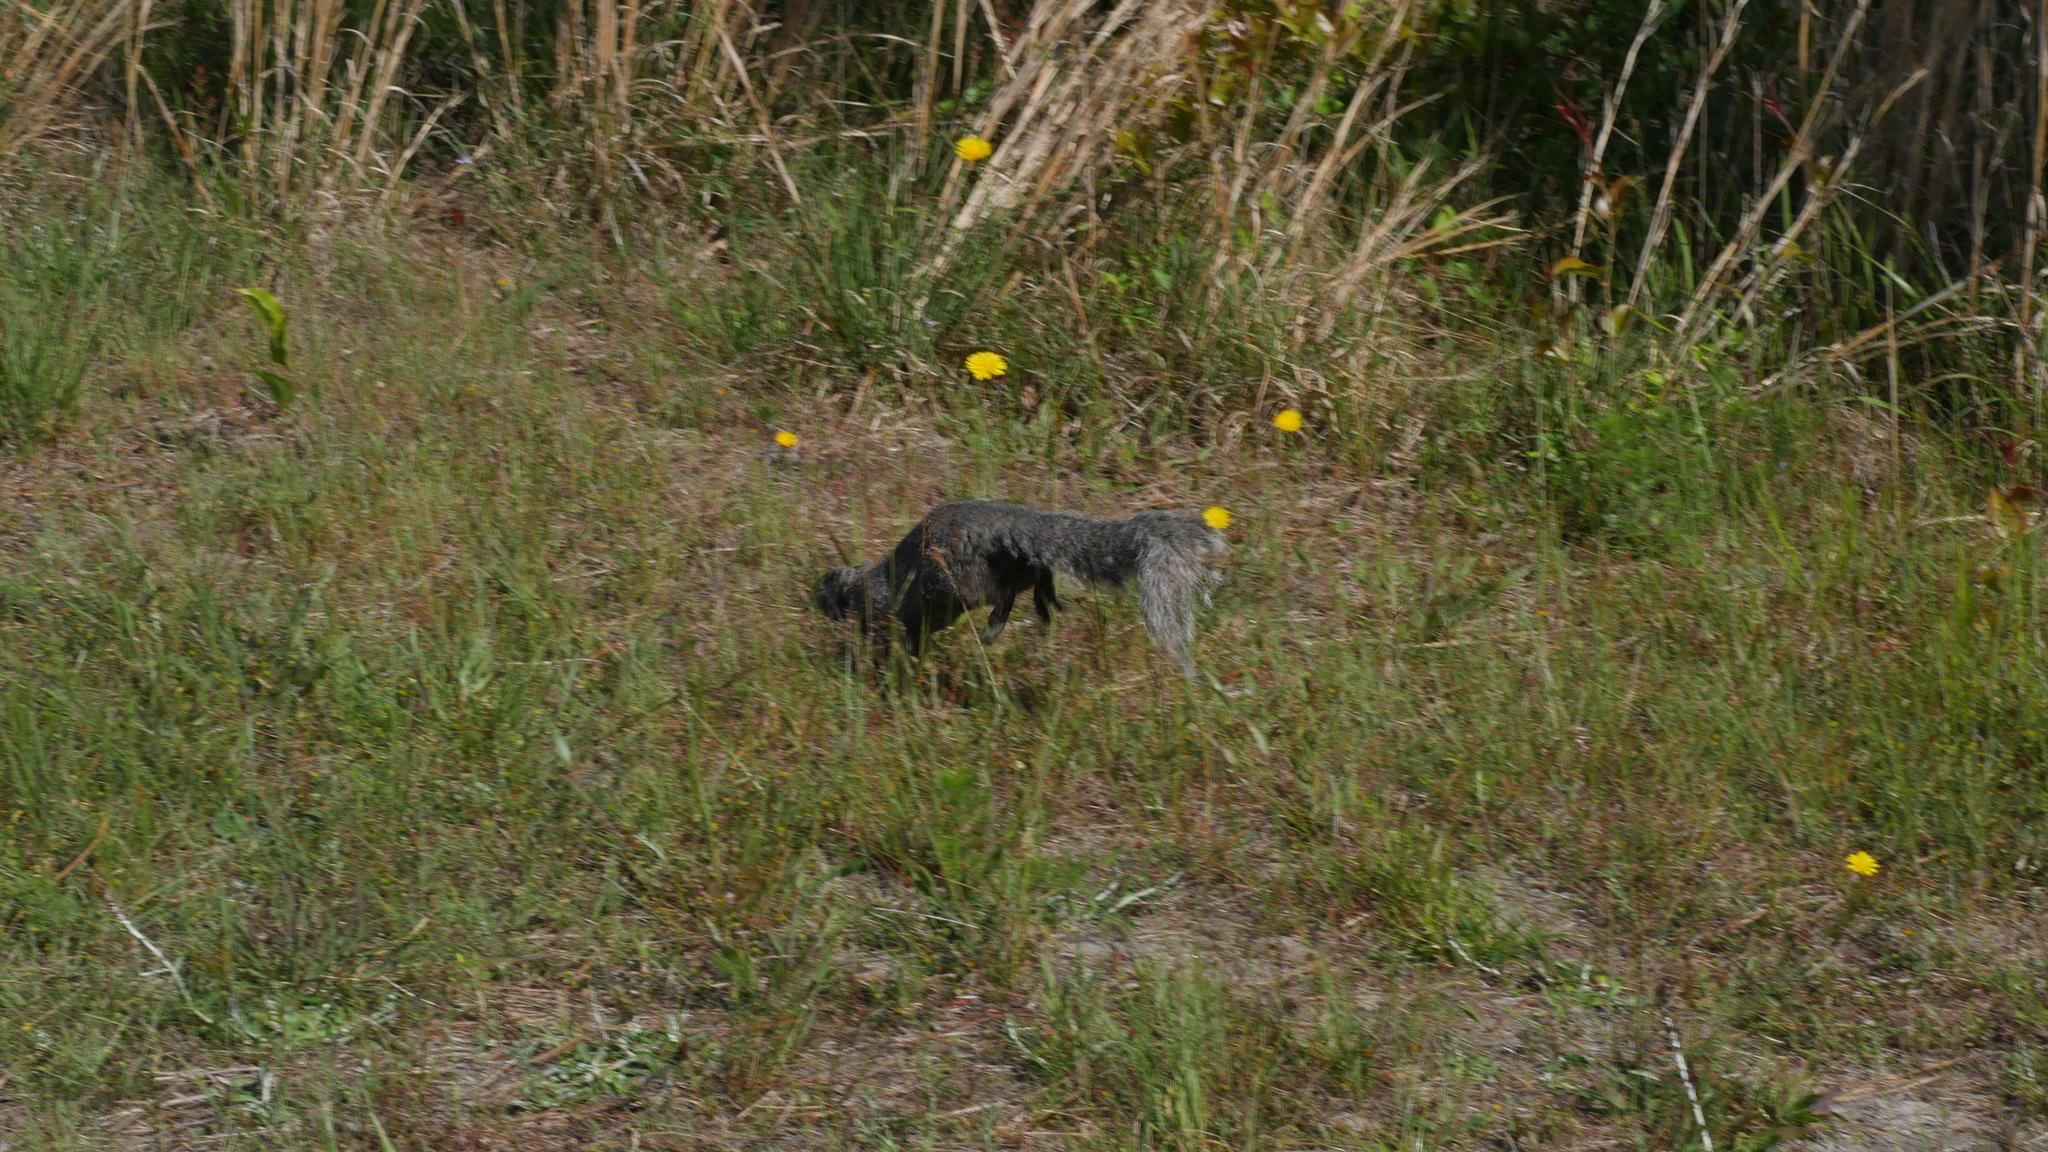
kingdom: Animalia
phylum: Chordata
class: Mammalia
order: Rodentia
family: Sciuridae
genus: Sciurus
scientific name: Sciurus niger
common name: Fox squirrel
